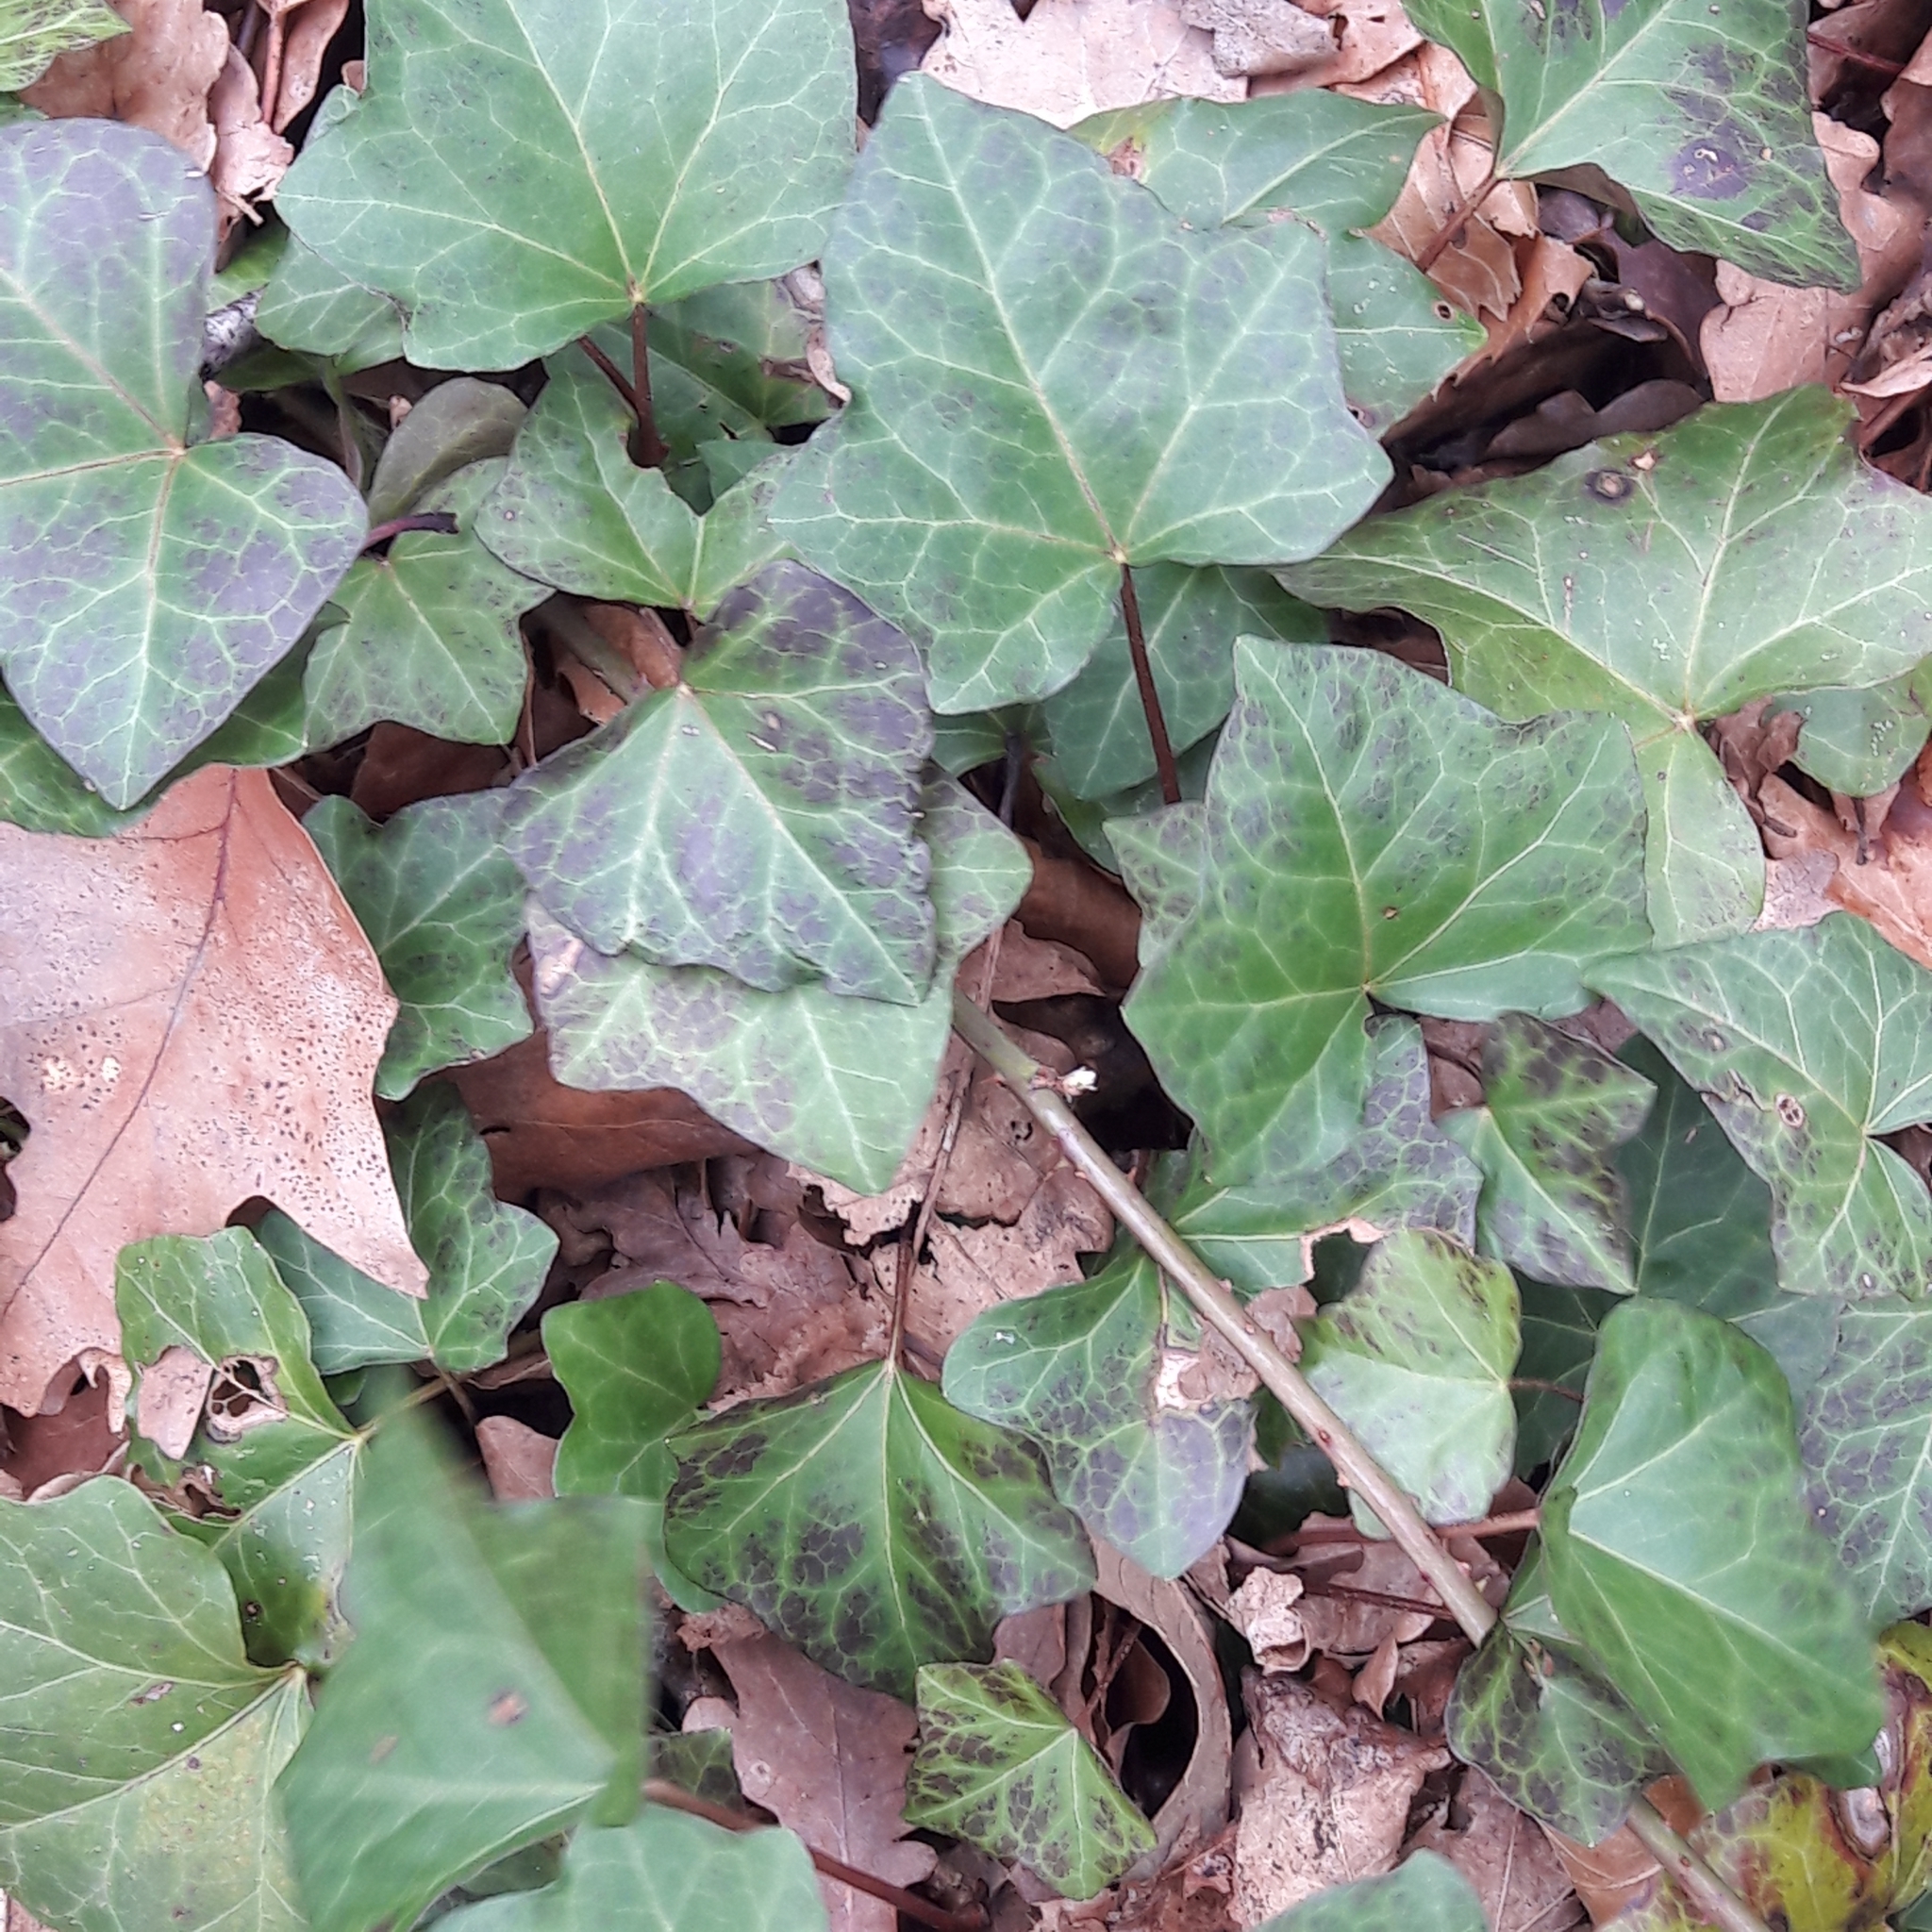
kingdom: Plantae
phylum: Tracheophyta
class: Magnoliopsida
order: Apiales
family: Araliaceae
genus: Hedera
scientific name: Hedera helix
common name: Ivy
